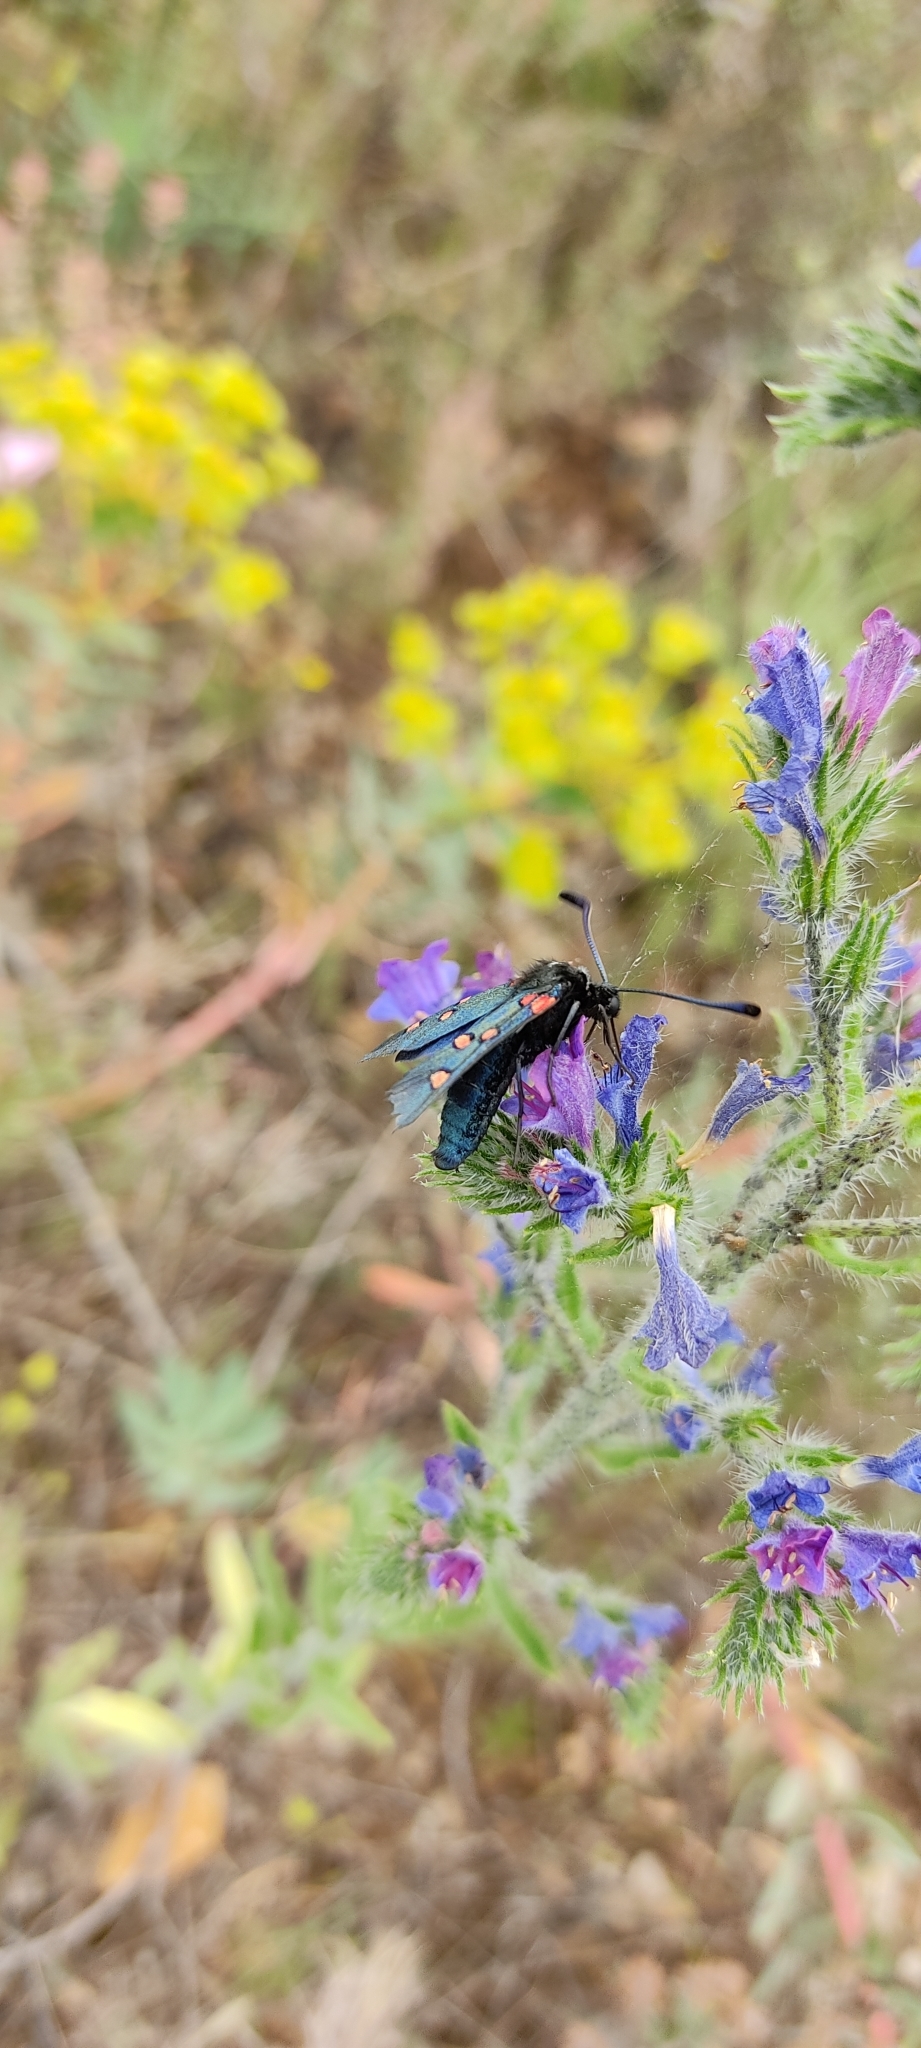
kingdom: Animalia
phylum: Arthropoda
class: Insecta
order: Lepidoptera
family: Zygaenidae
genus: Zygaena
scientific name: Zygaena lavandulae
